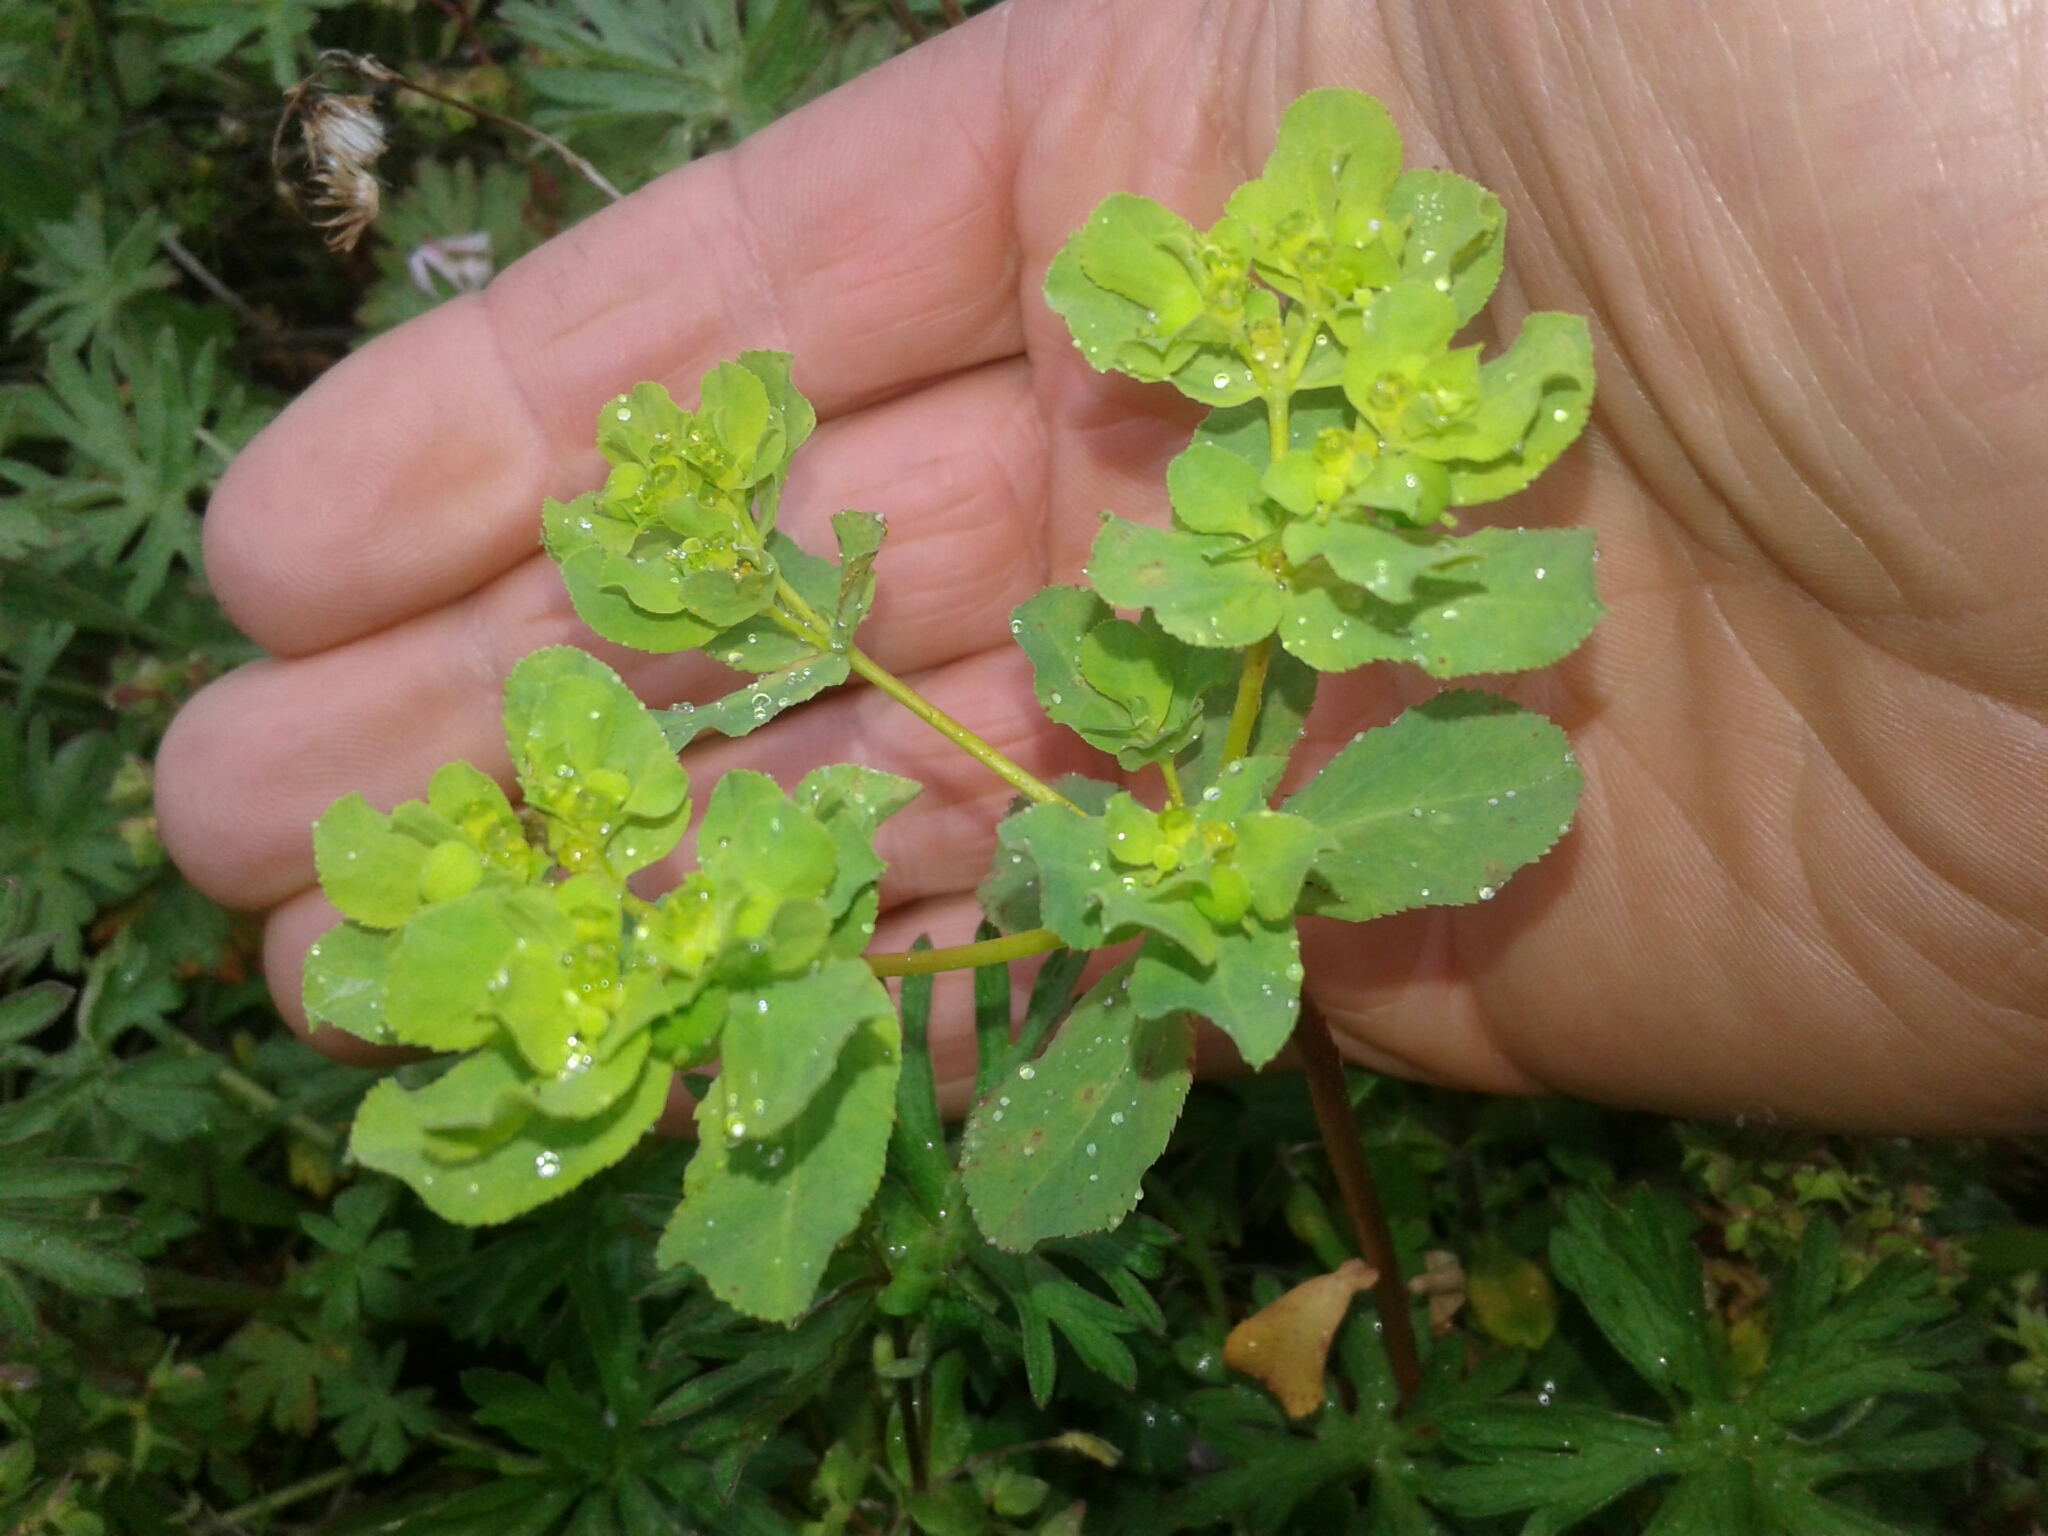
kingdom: Plantae
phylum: Tracheophyta
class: Magnoliopsida
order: Malpighiales
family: Euphorbiaceae
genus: Euphorbia
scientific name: Euphorbia helioscopia
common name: Sun spurge
